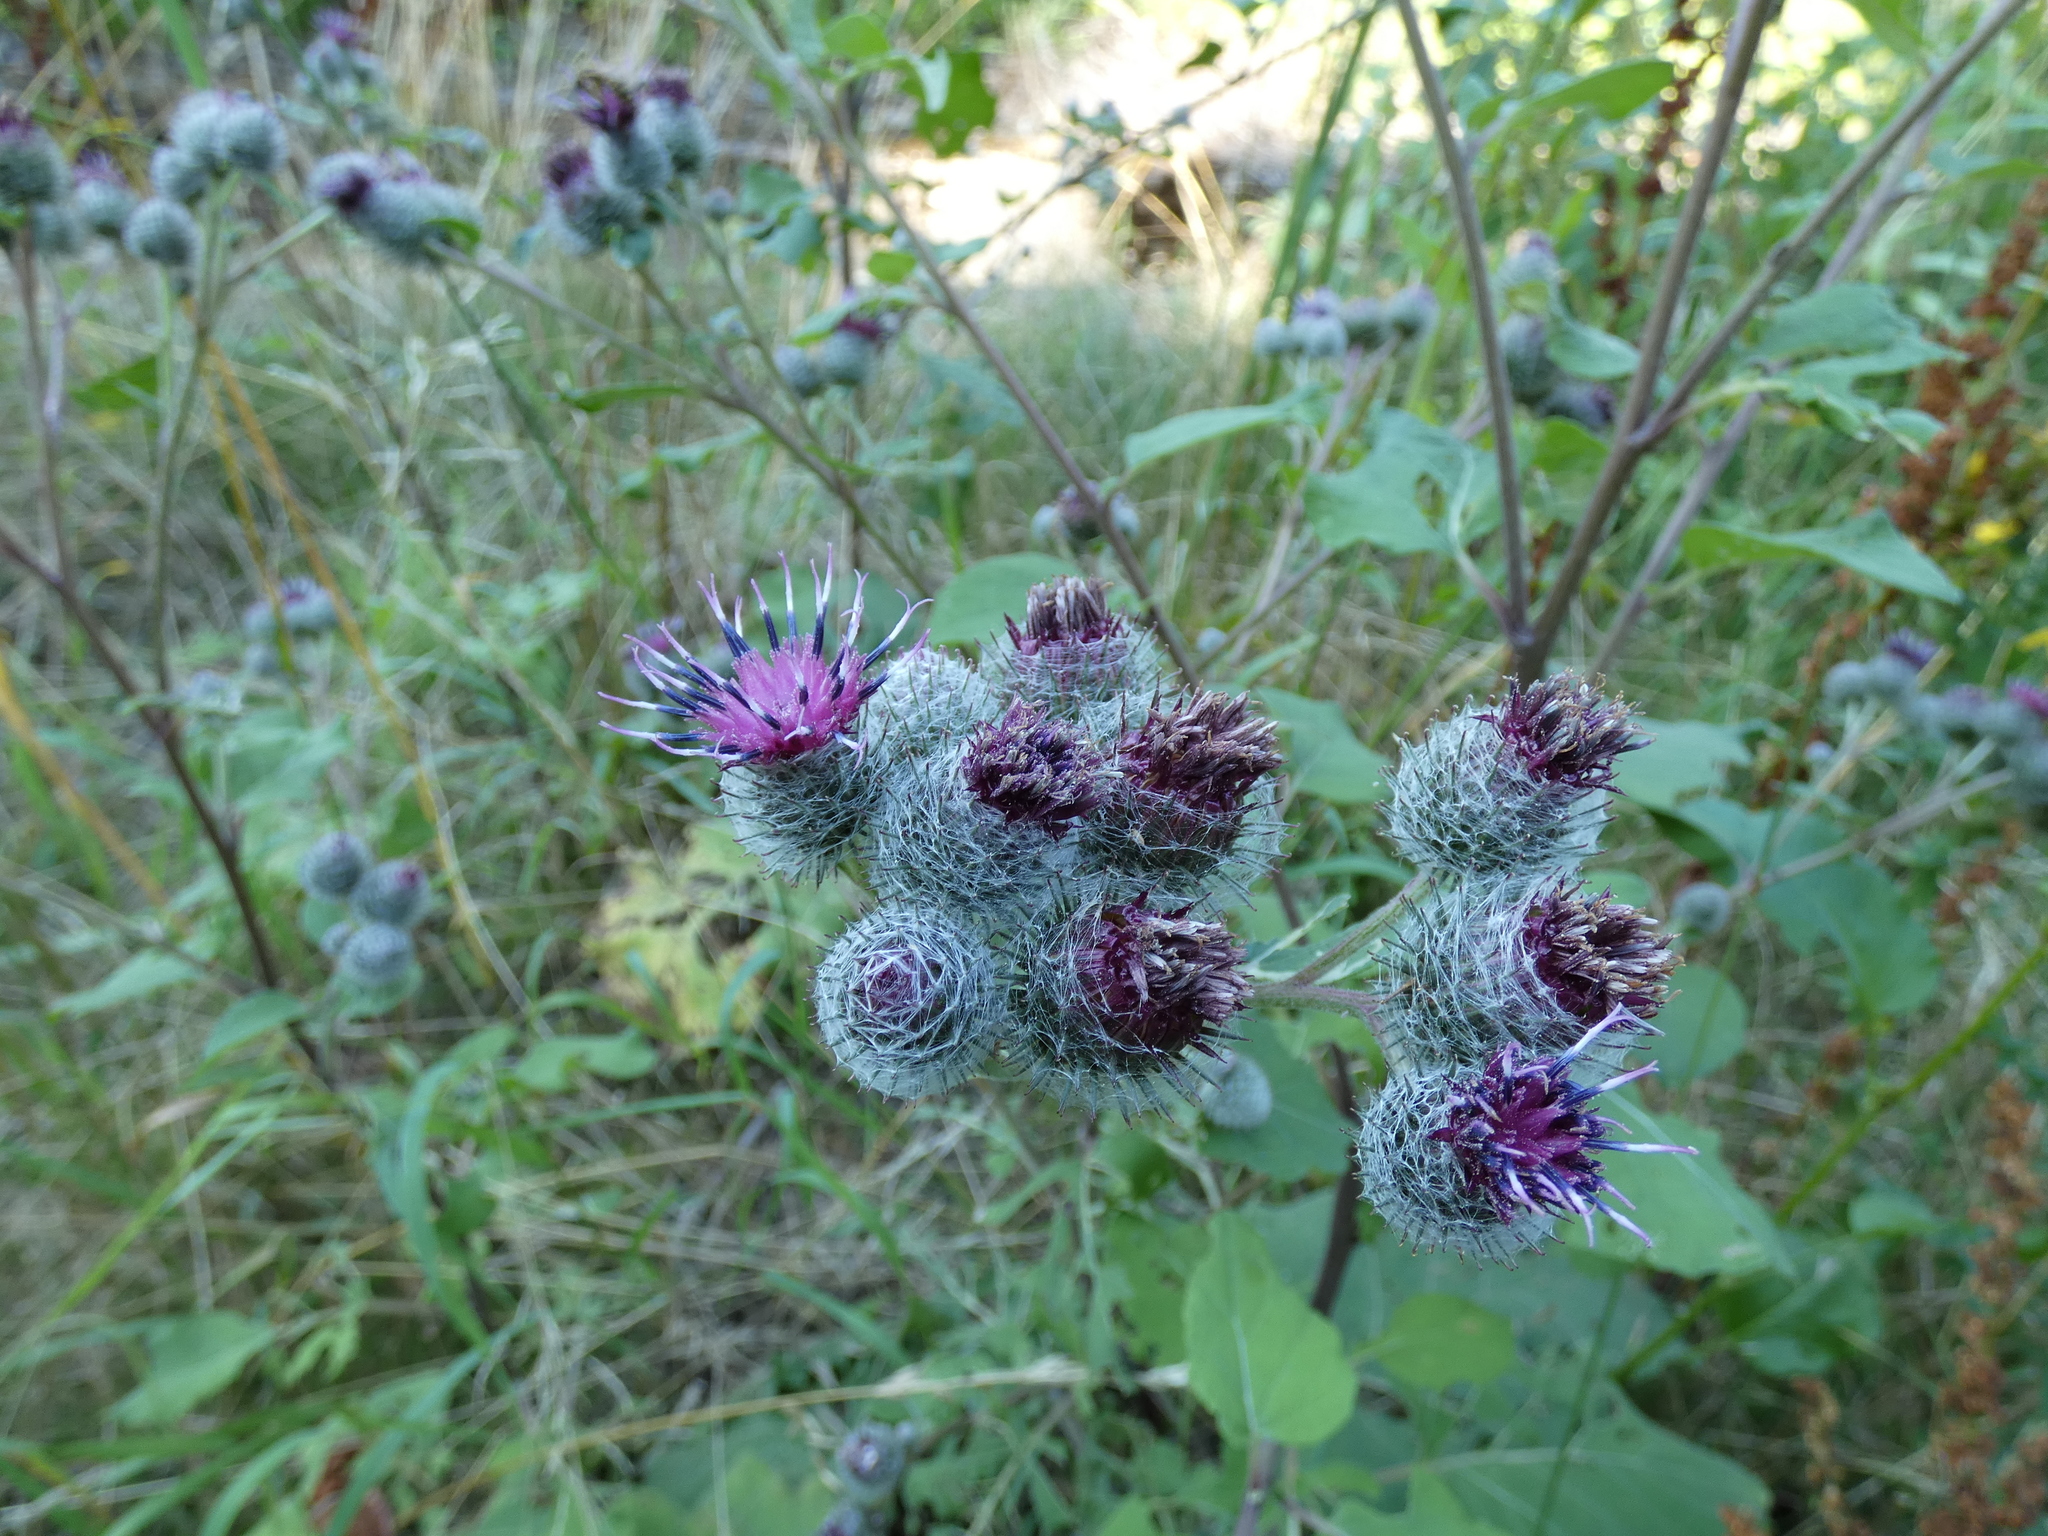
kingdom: Plantae
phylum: Tracheophyta
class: Magnoliopsida
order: Asterales
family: Asteraceae
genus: Arctium
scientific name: Arctium tomentosum
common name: Woolly burdock
